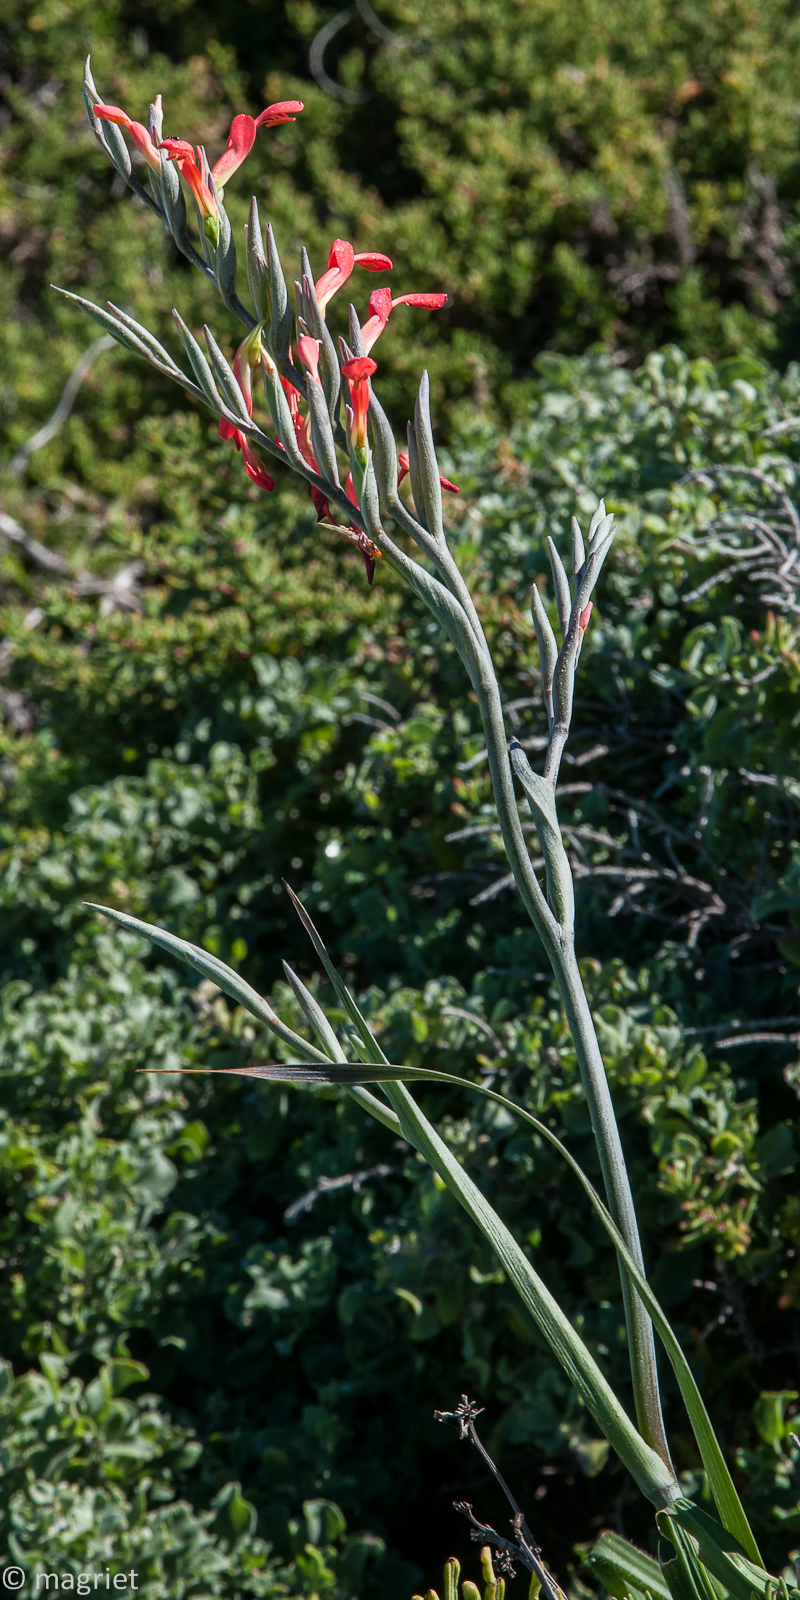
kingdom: Plantae
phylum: Tracheophyta
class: Liliopsida
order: Asparagales
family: Iridaceae
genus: Gladiolus
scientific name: Gladiolus cunonius
